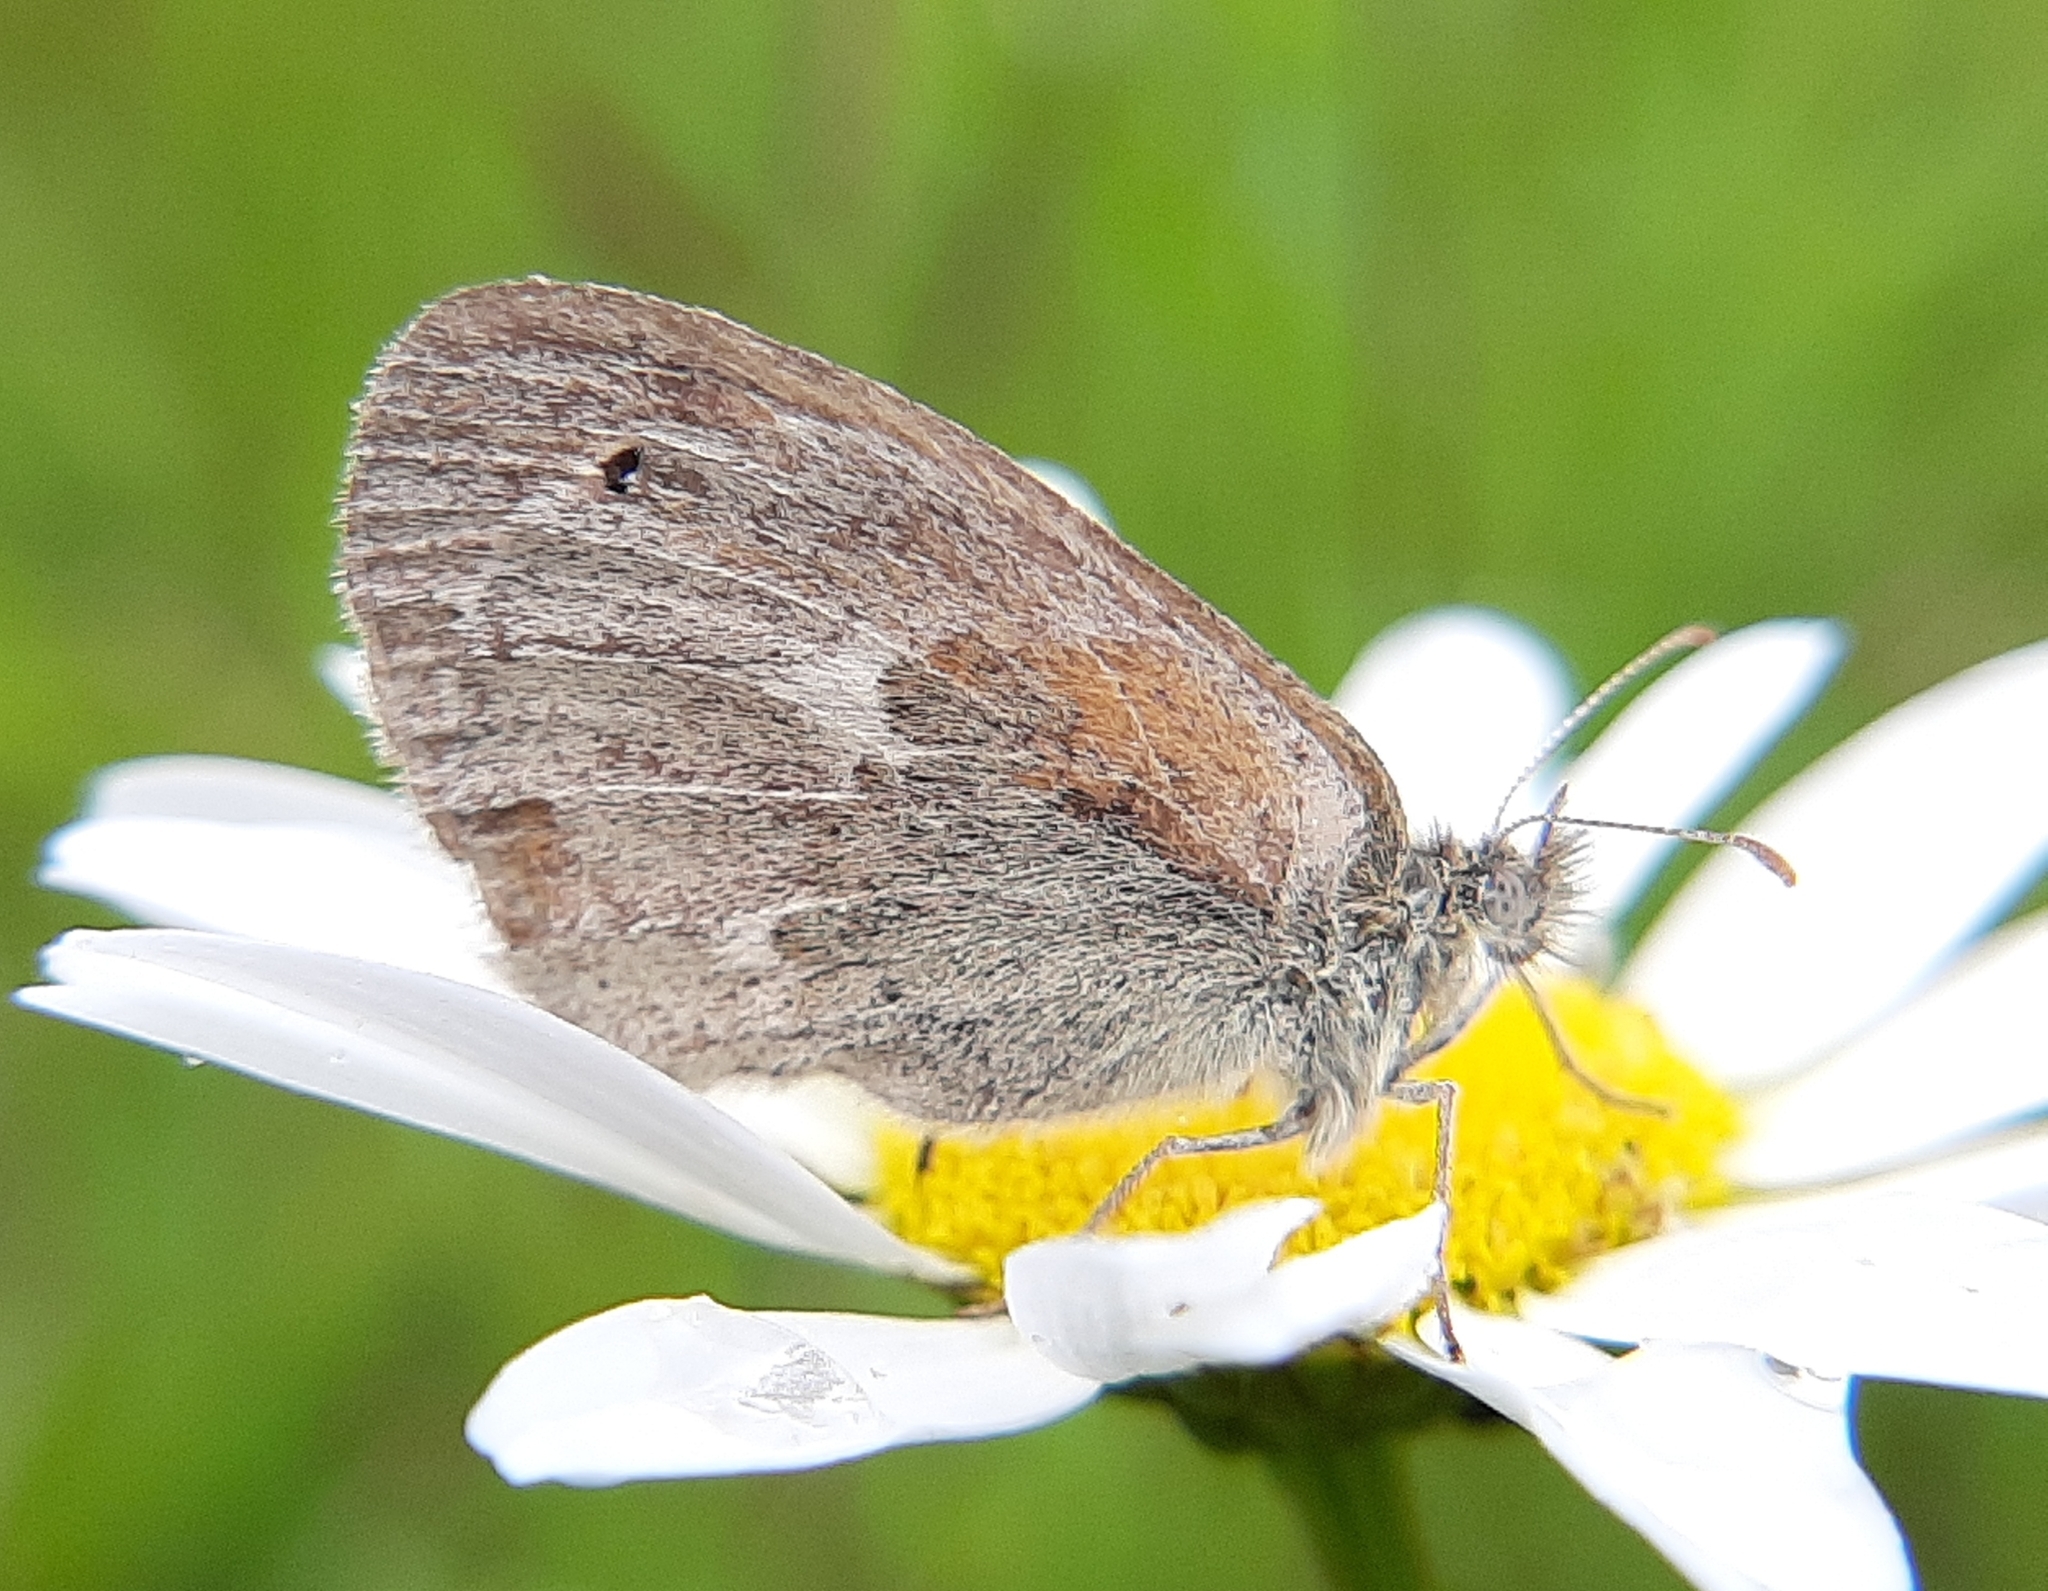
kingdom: Animalia
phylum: Arthropoda
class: Insecta
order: Lepidoptera
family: Nymphalidae
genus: Coenonympha
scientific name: Coenonympha california
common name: Common ringlet
